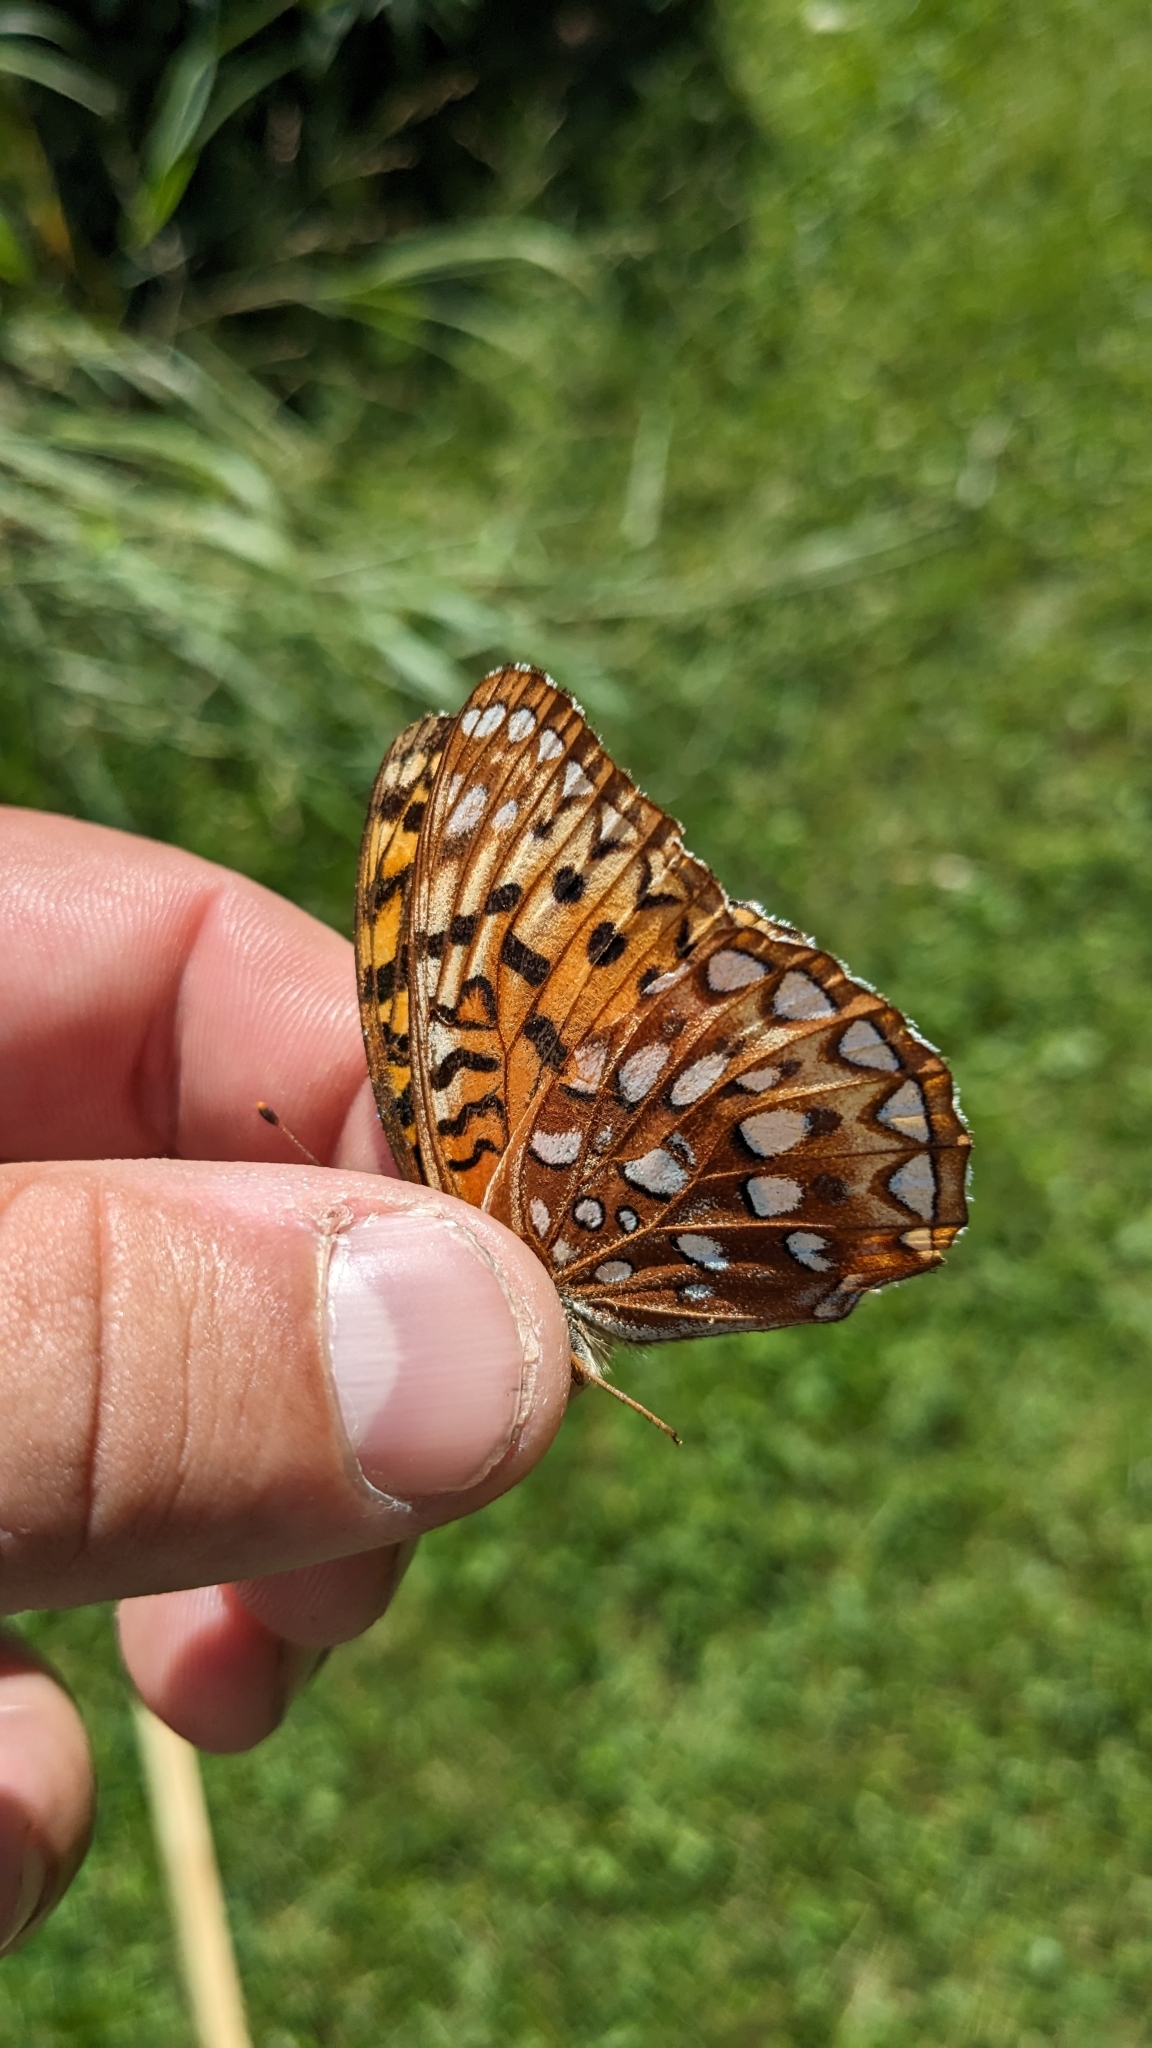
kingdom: Animalia
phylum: Arthropoda
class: Insecta
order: Lepidoptera
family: Nymphalidae
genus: Speyeria
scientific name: Speyeria aphrodite
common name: Aphrodite friitllary
